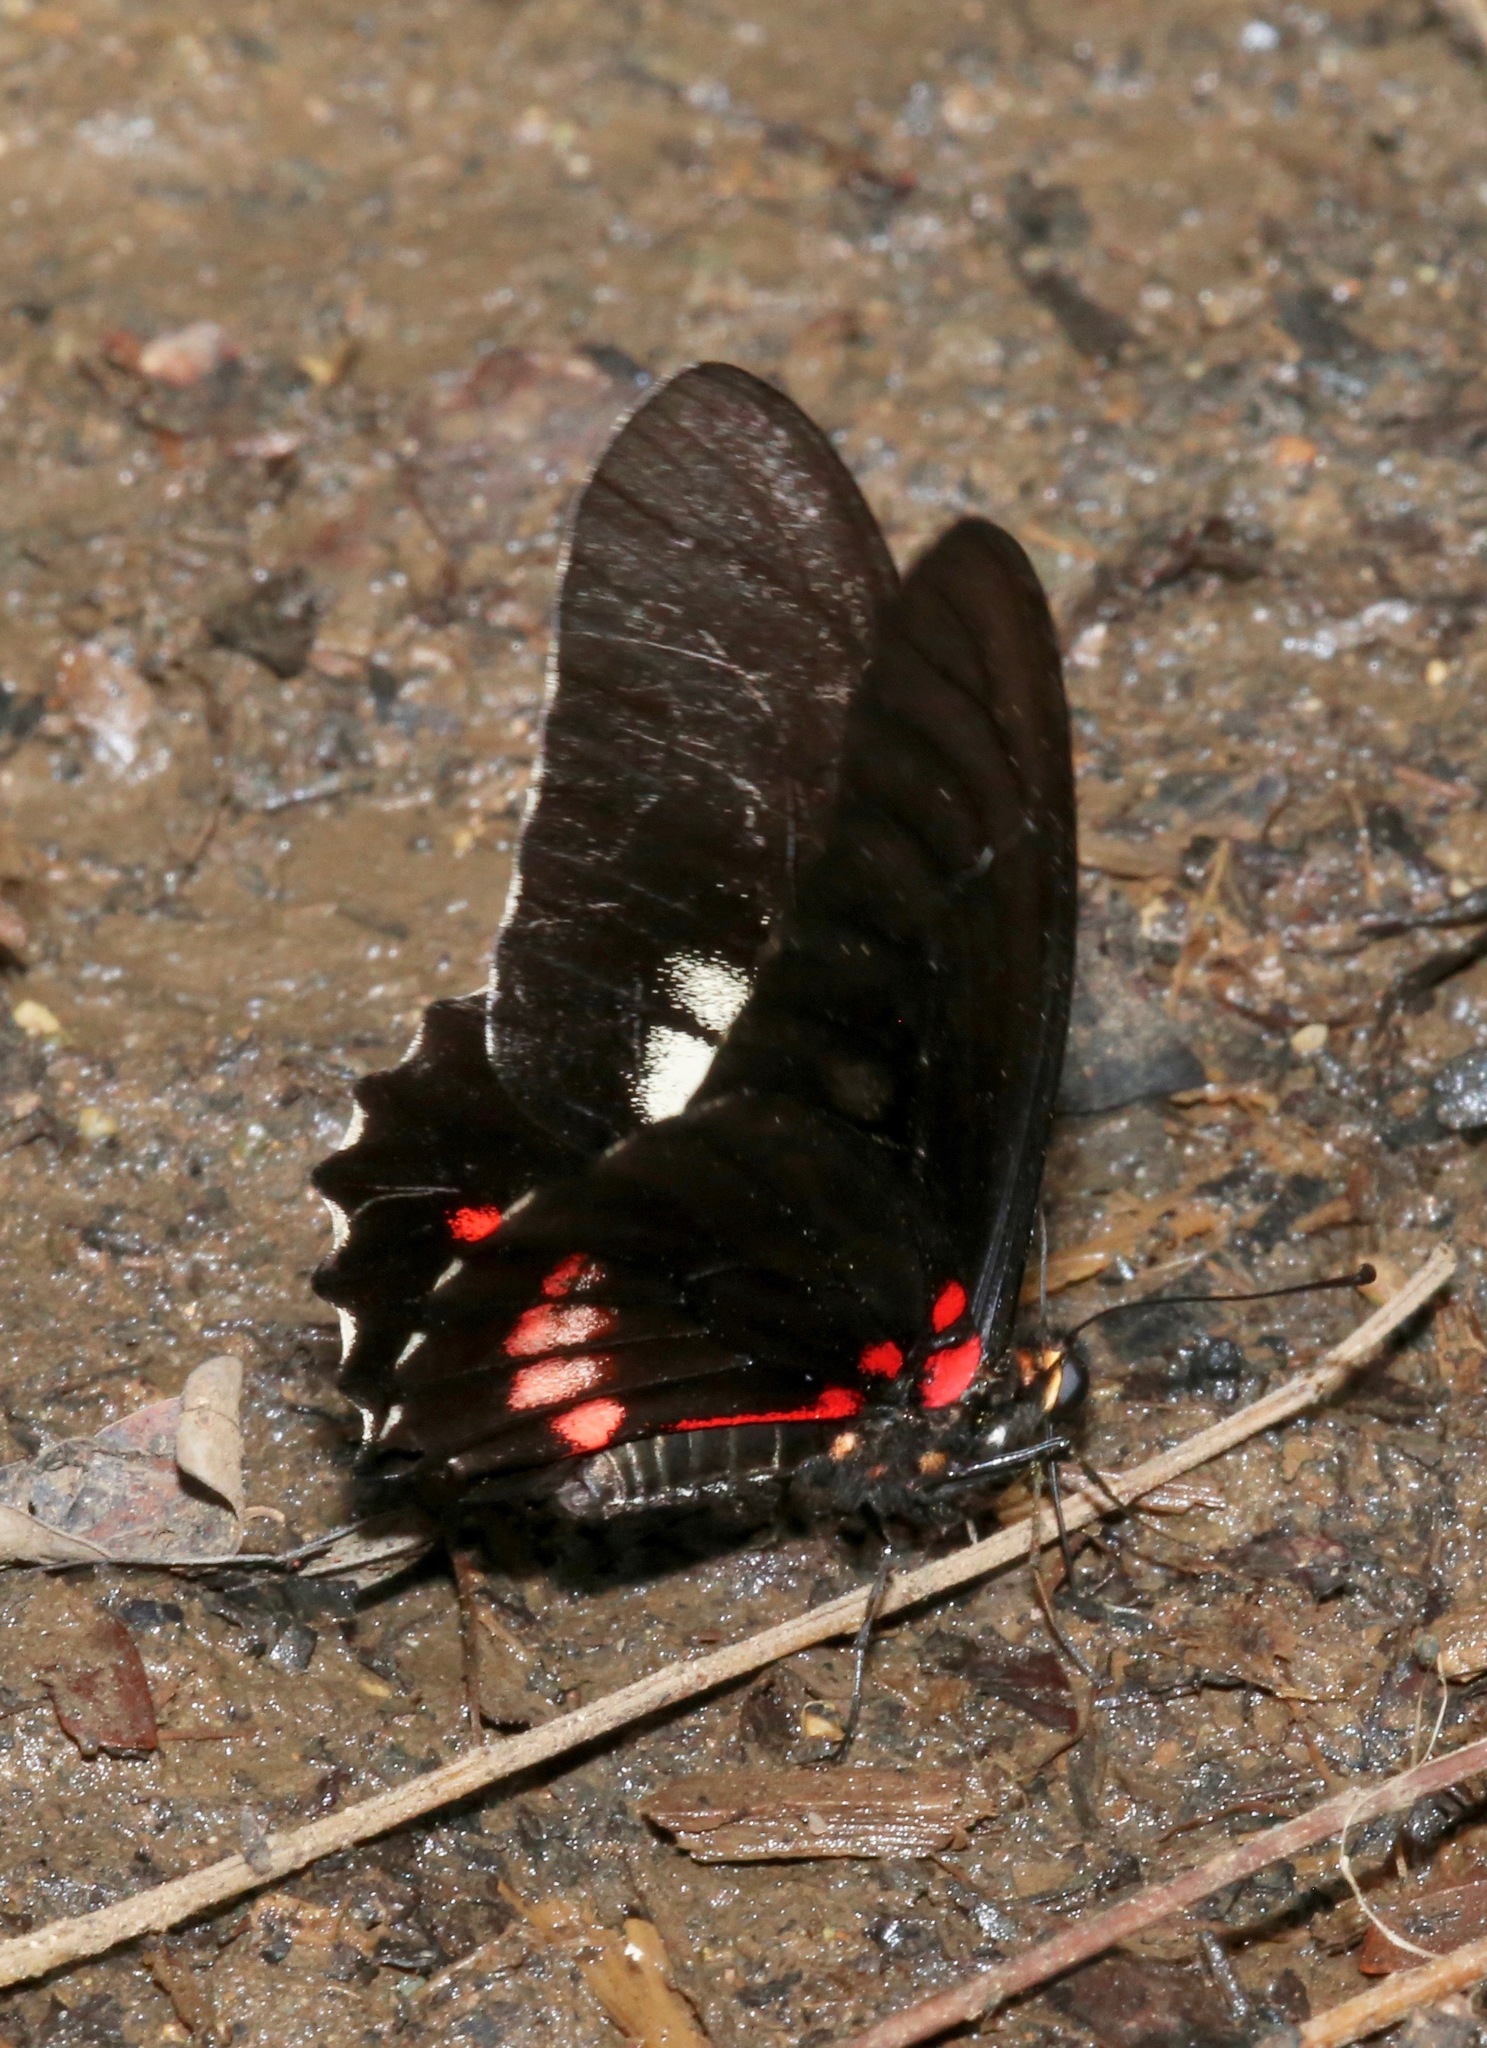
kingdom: Animalia
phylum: Arthropoda
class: Insecta
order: Lepidoptera
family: Papilionidae
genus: Mimoides
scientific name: Mimoides ilus
